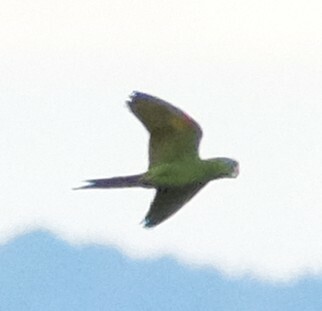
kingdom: Animalia
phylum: Chordata
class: Aves
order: Psittaciformes
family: Psittacidae
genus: Aratinga
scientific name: Aratinga leucophthalma
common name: White-eyed parakeet
